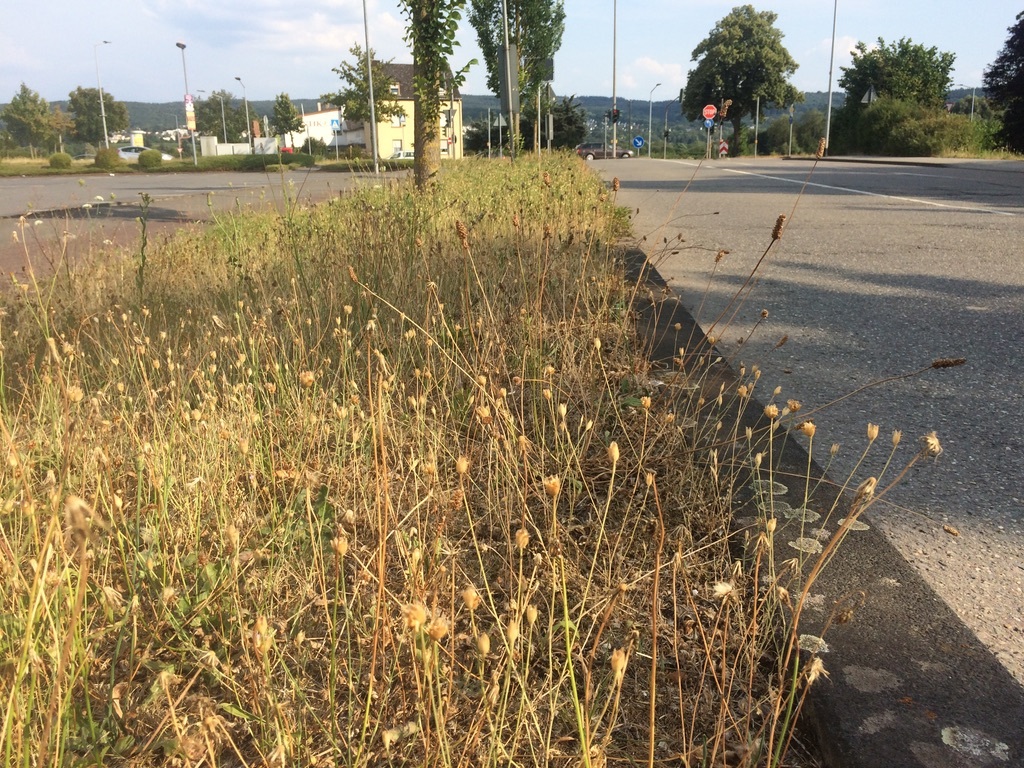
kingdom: Plantae
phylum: Tracheophyta
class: Magnoliopsida
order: Caryophyllales
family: Caryophyllaceae
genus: Petrorhagia
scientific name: Petrorhagia prolifera
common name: Proliferous pink
